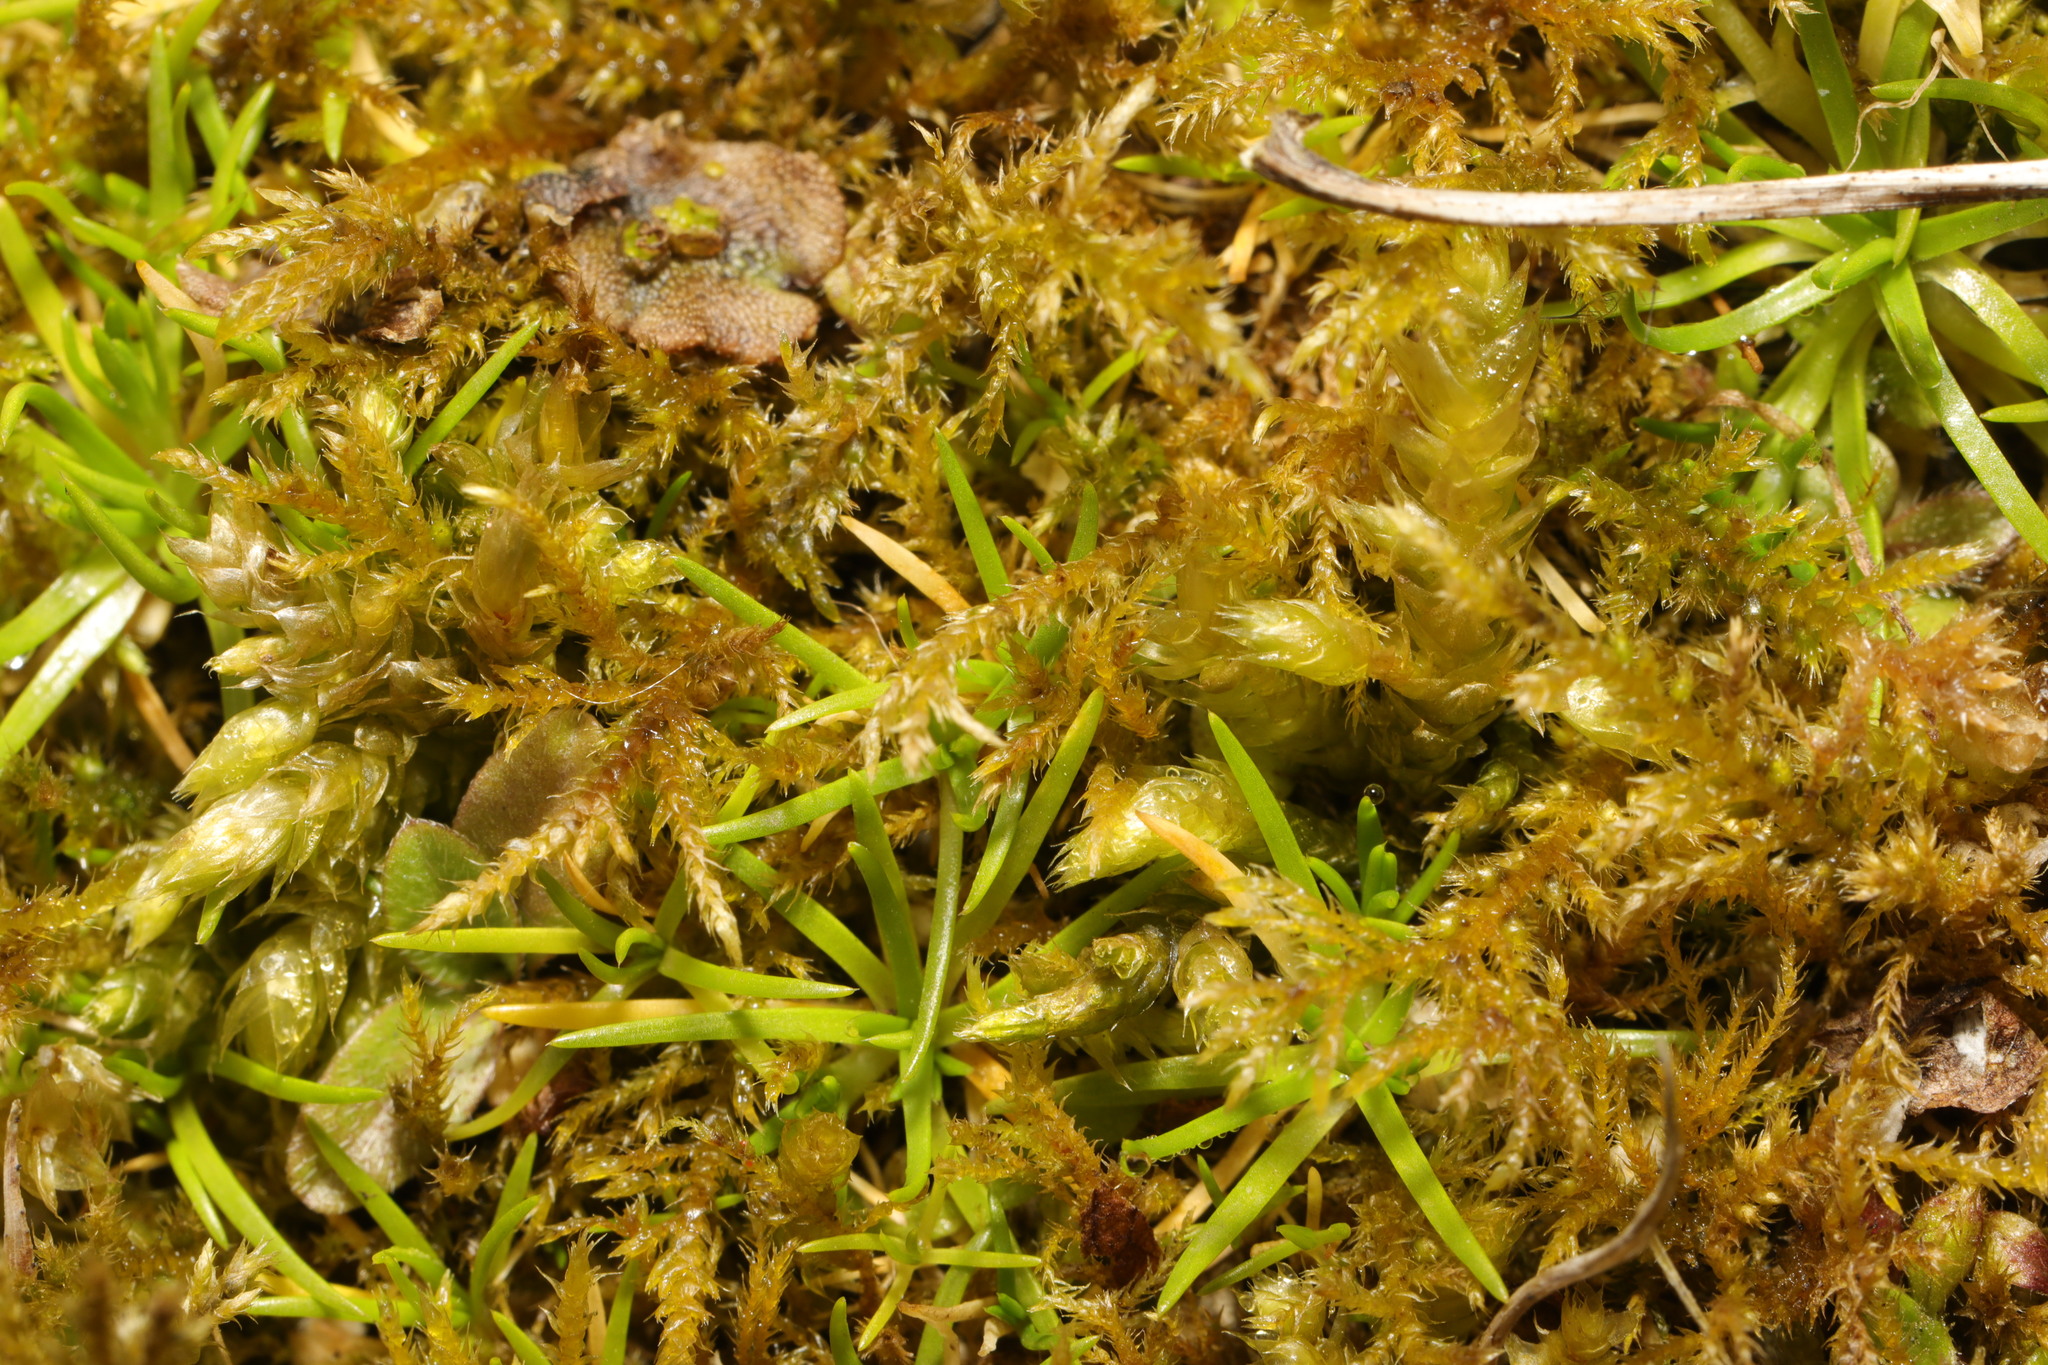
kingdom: Plantae
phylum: Bryophyta
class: Bryopsida
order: Hypnales
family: Pylaisiaceae
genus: Calliergonella
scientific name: Calliergonella cuspidata
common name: Common large wetland moss
